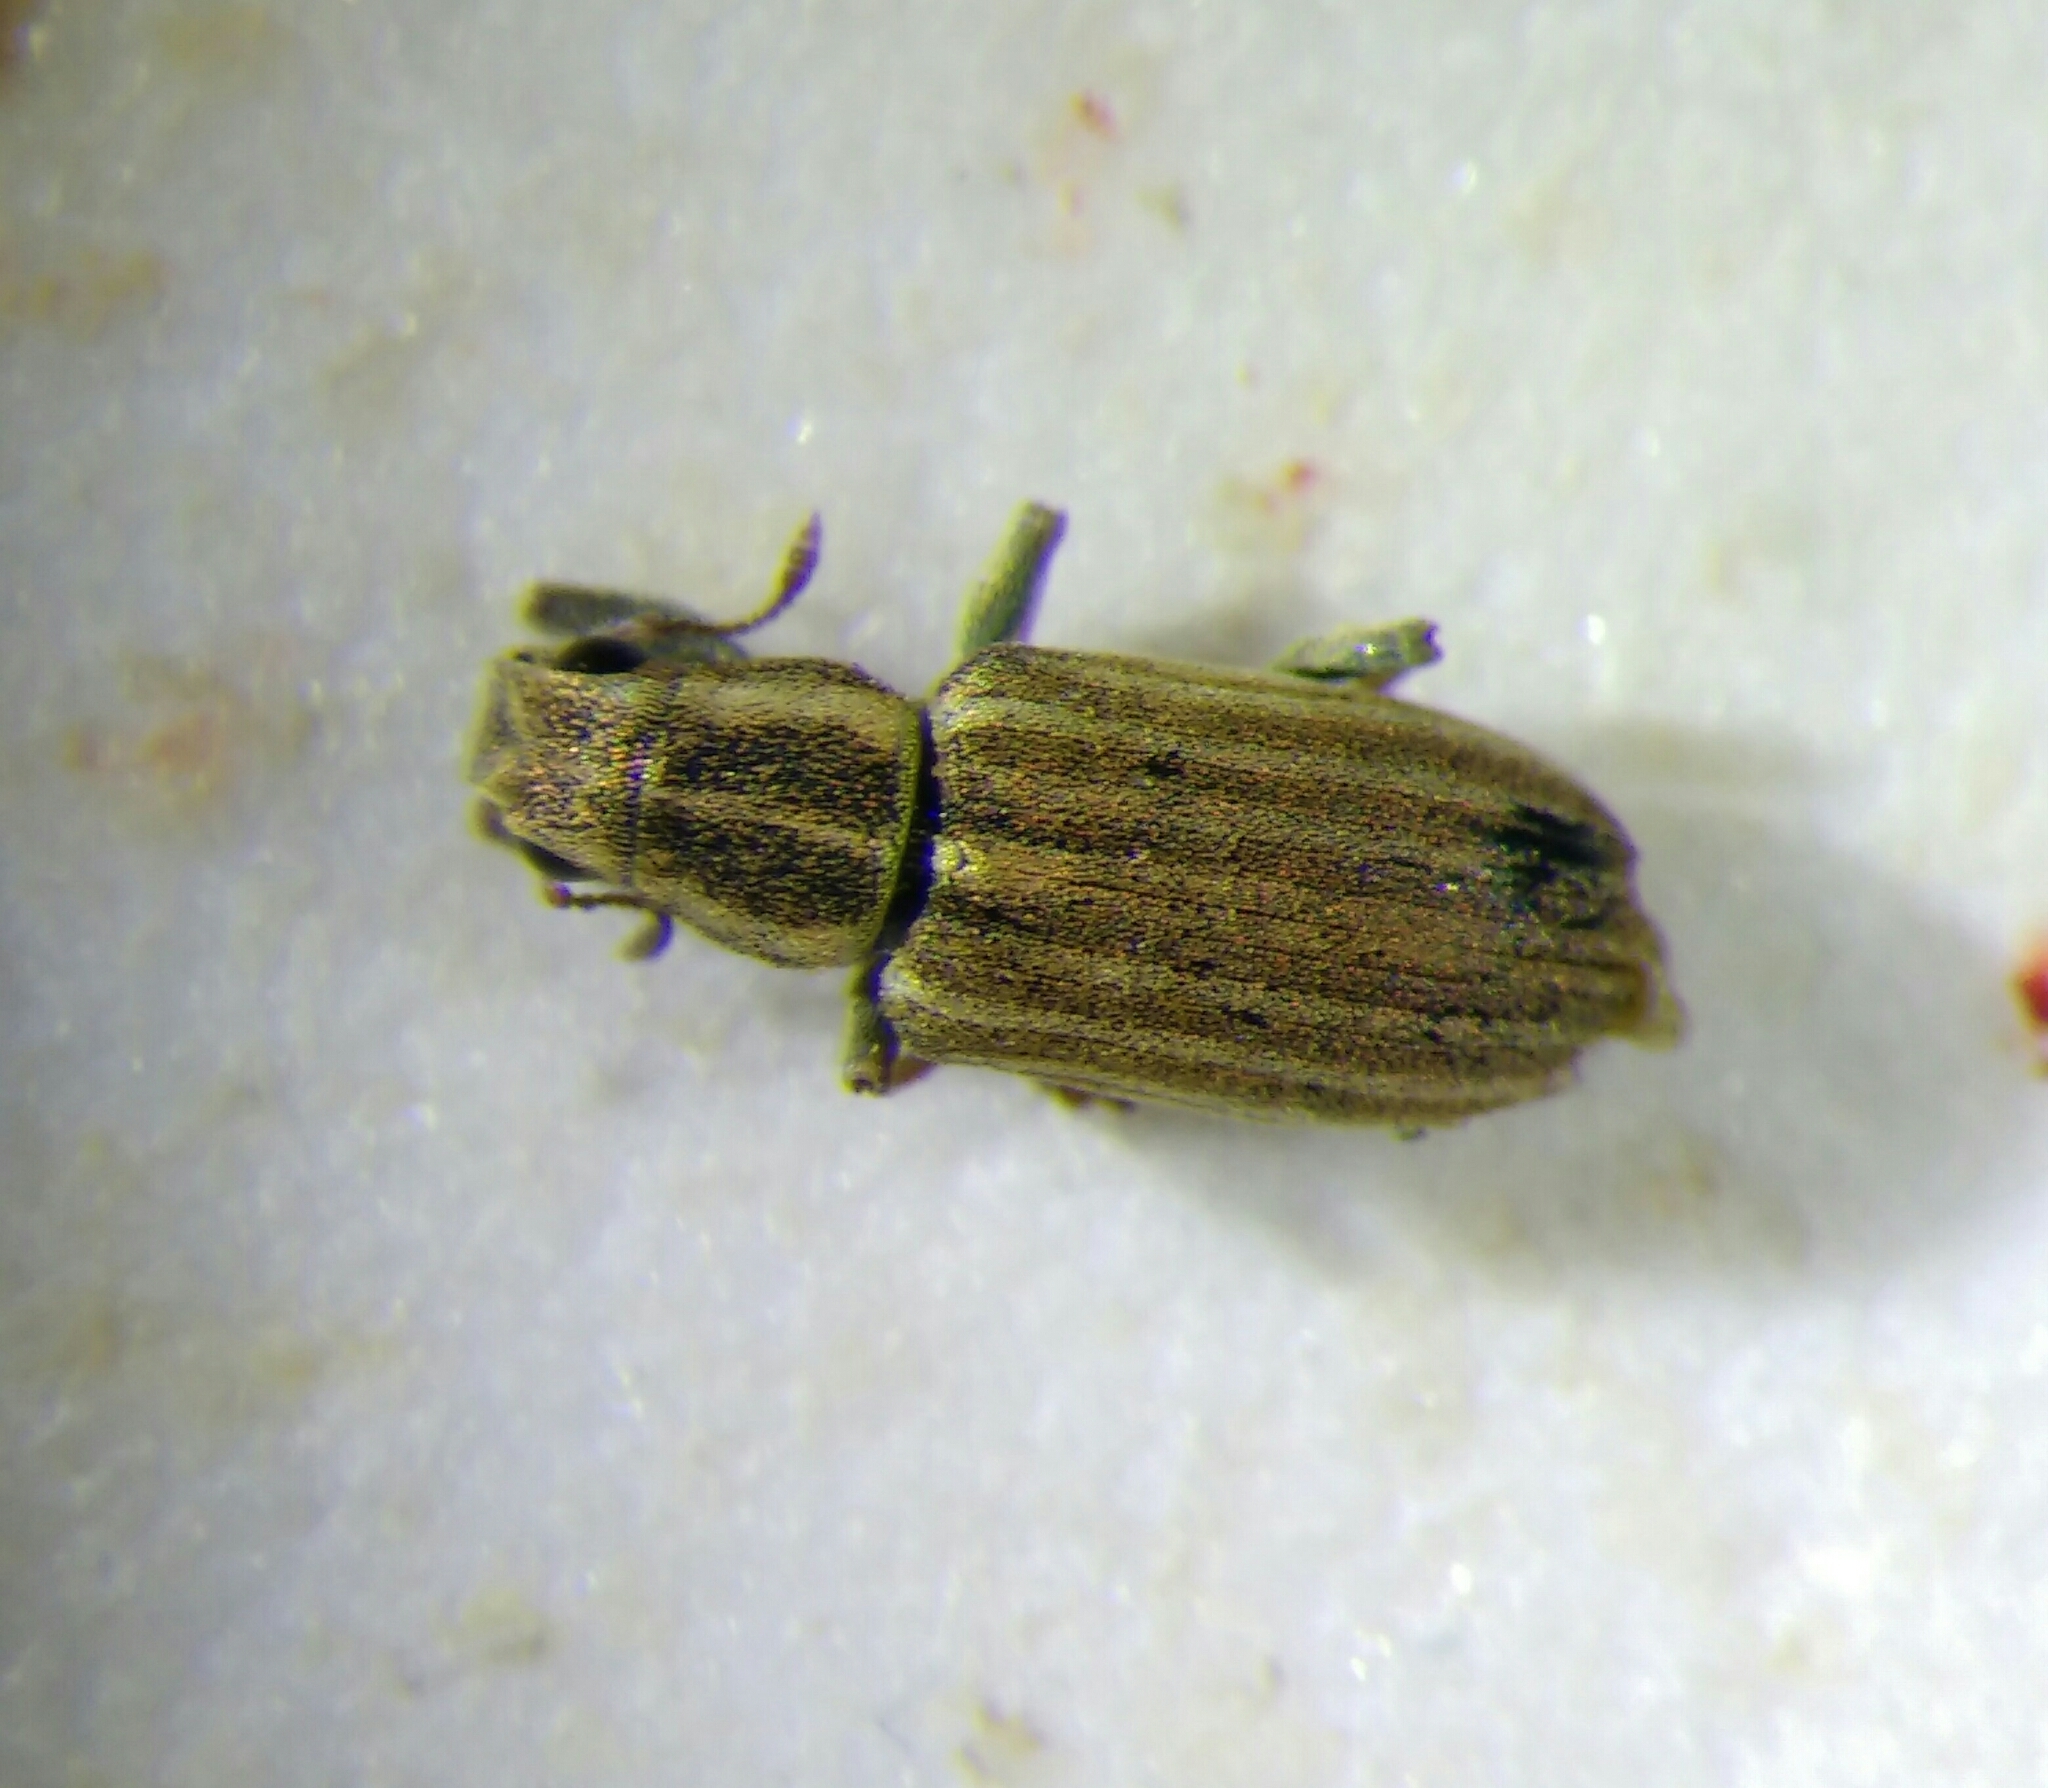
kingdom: Animalia
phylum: Arthropoda
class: Insecta
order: Coleoptera
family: Curculionidae
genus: Sitona
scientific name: Sitona lineatus
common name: Weevil
